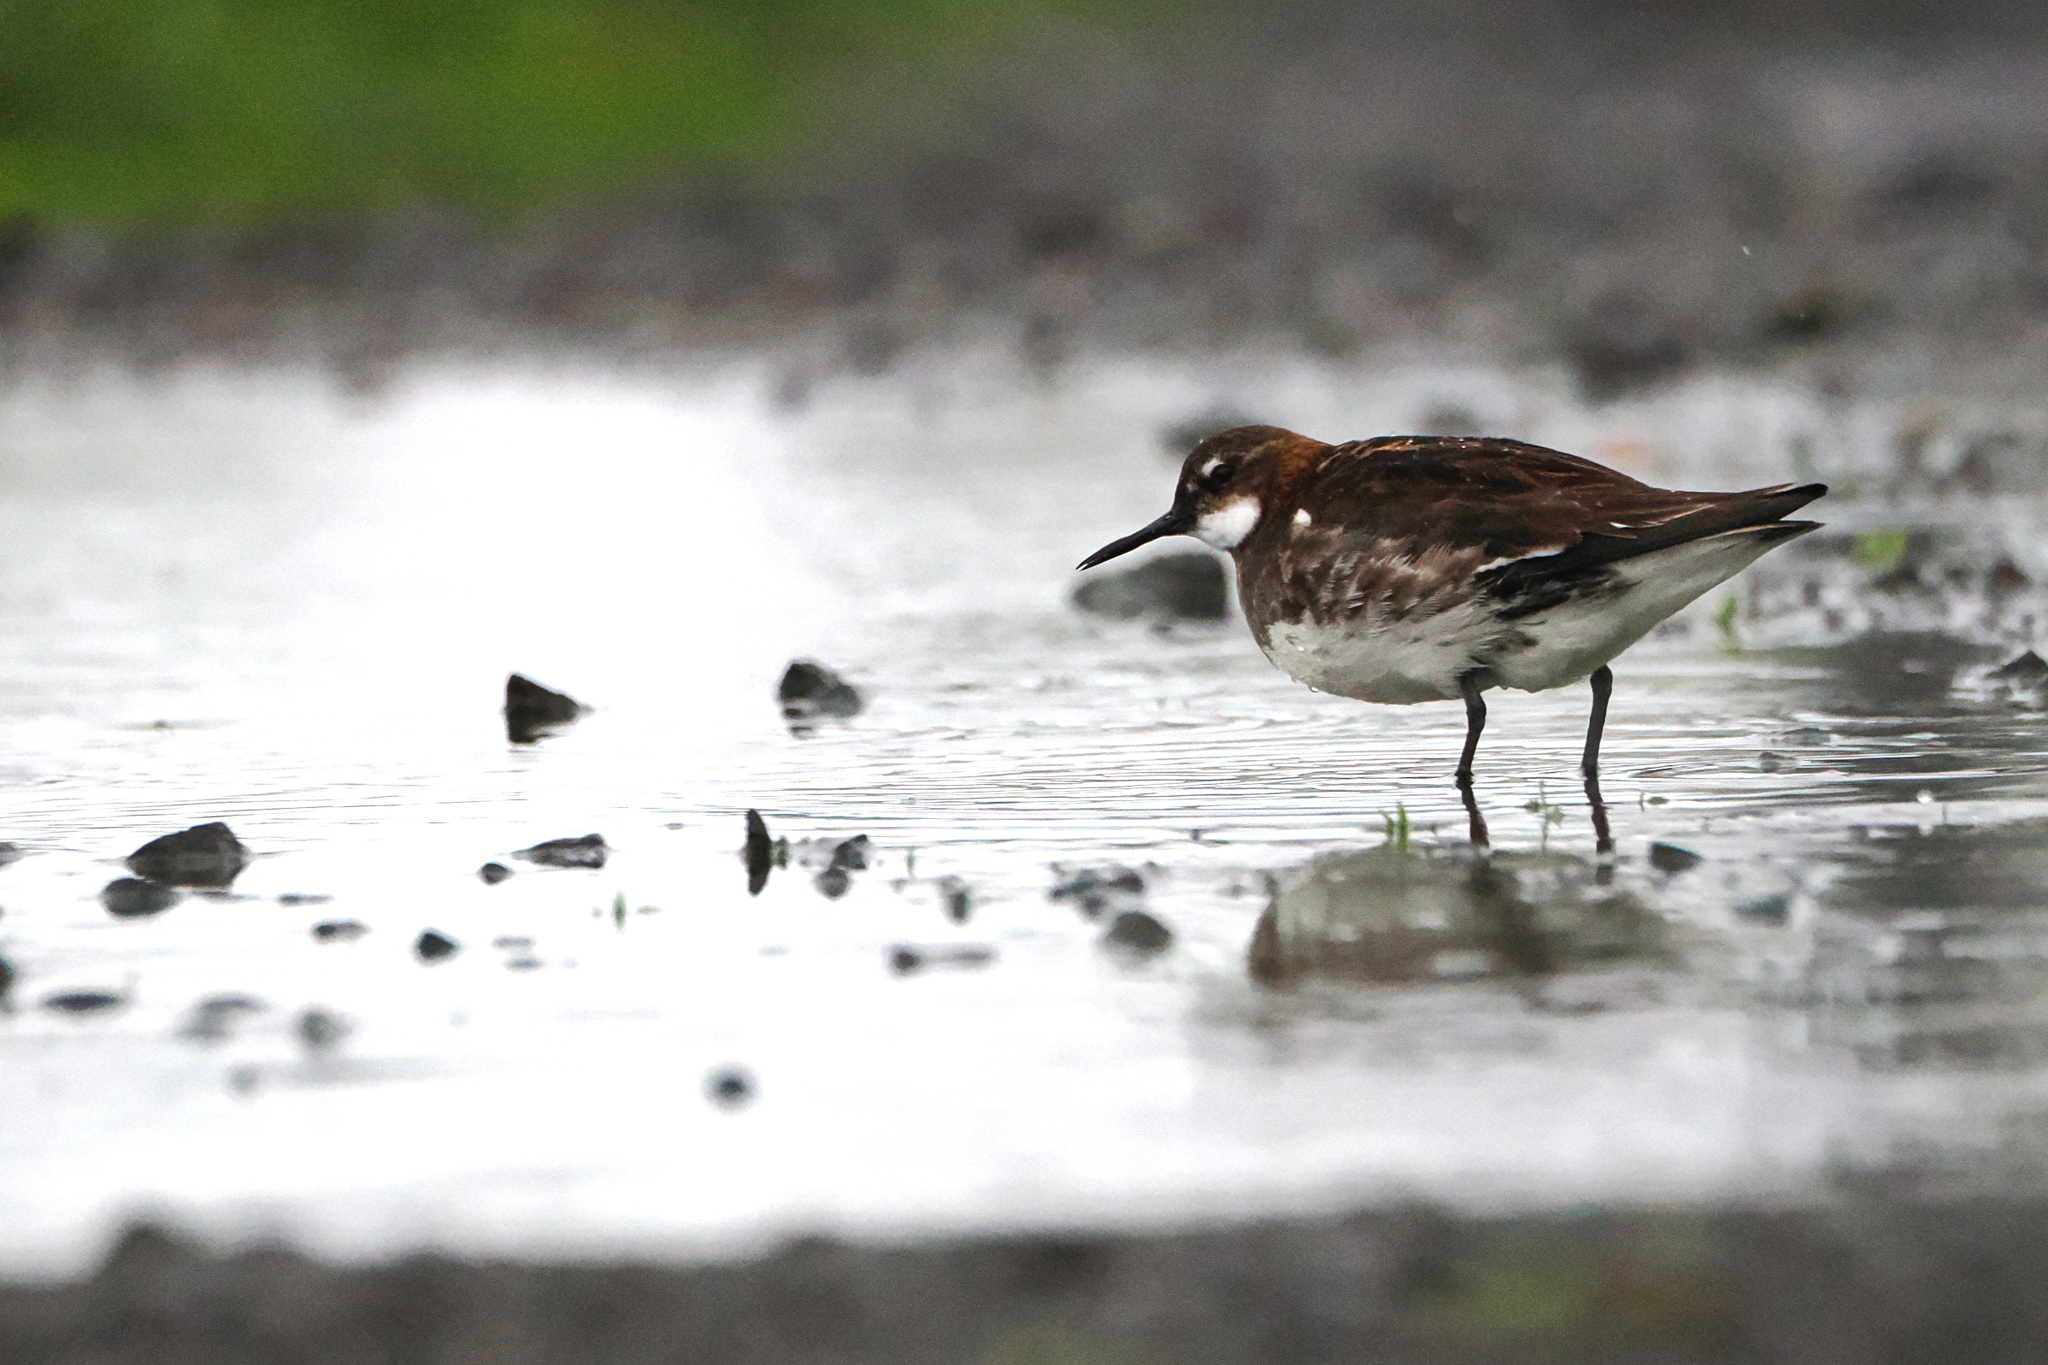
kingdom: Animalia
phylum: Chordata
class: Aves
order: Charadriiformes
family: Scolopacidae
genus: Phalaropus
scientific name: Phalaropus lobatus
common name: Red-necked phalarope
